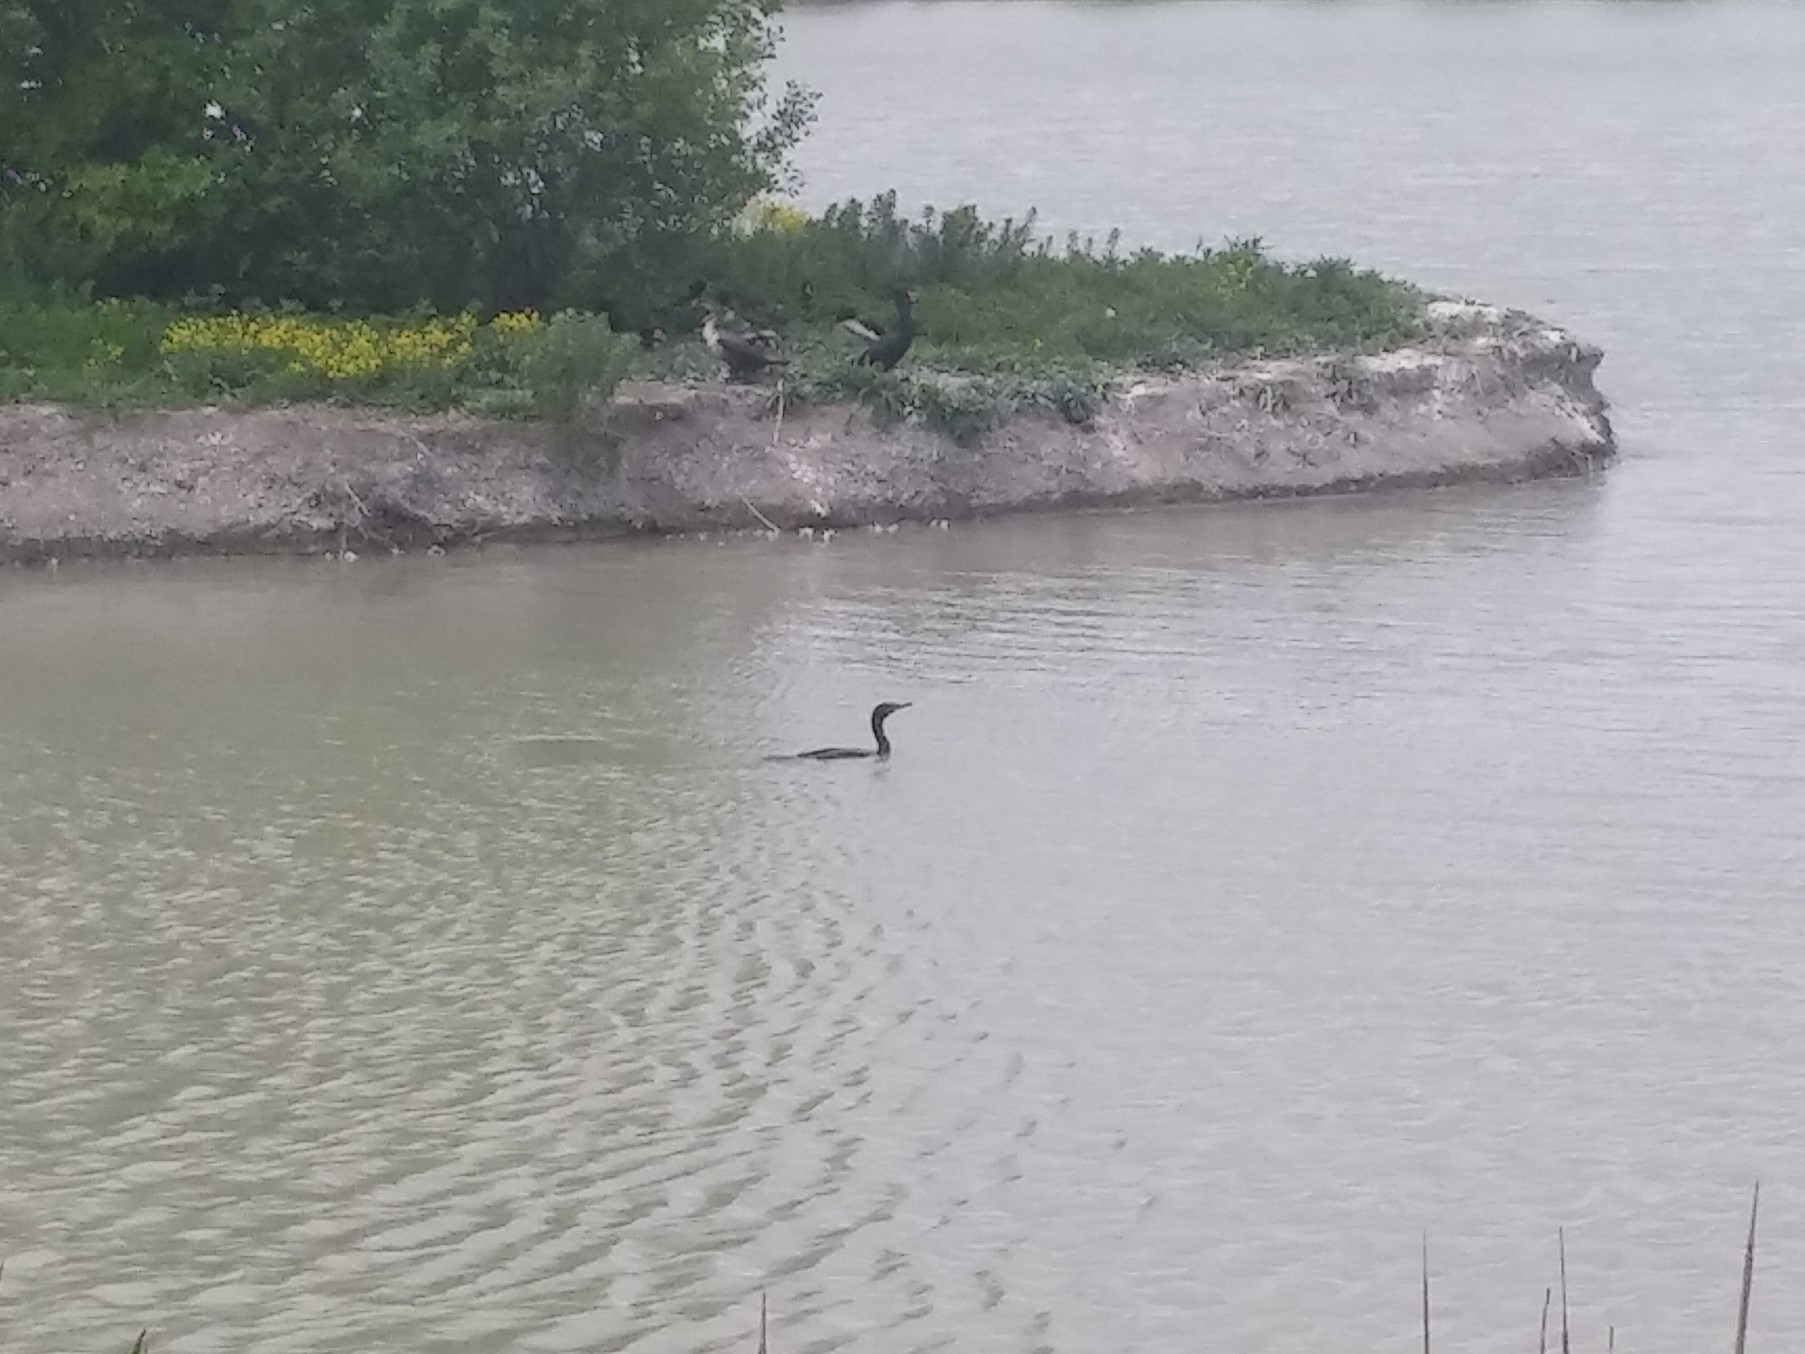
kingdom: Animalia
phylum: Chordata
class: Aves
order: Suliformes
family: Phalacrocoracidae
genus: Phalacrocorax
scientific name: Phalacrocorax auritus
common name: Double-crested cormorant
